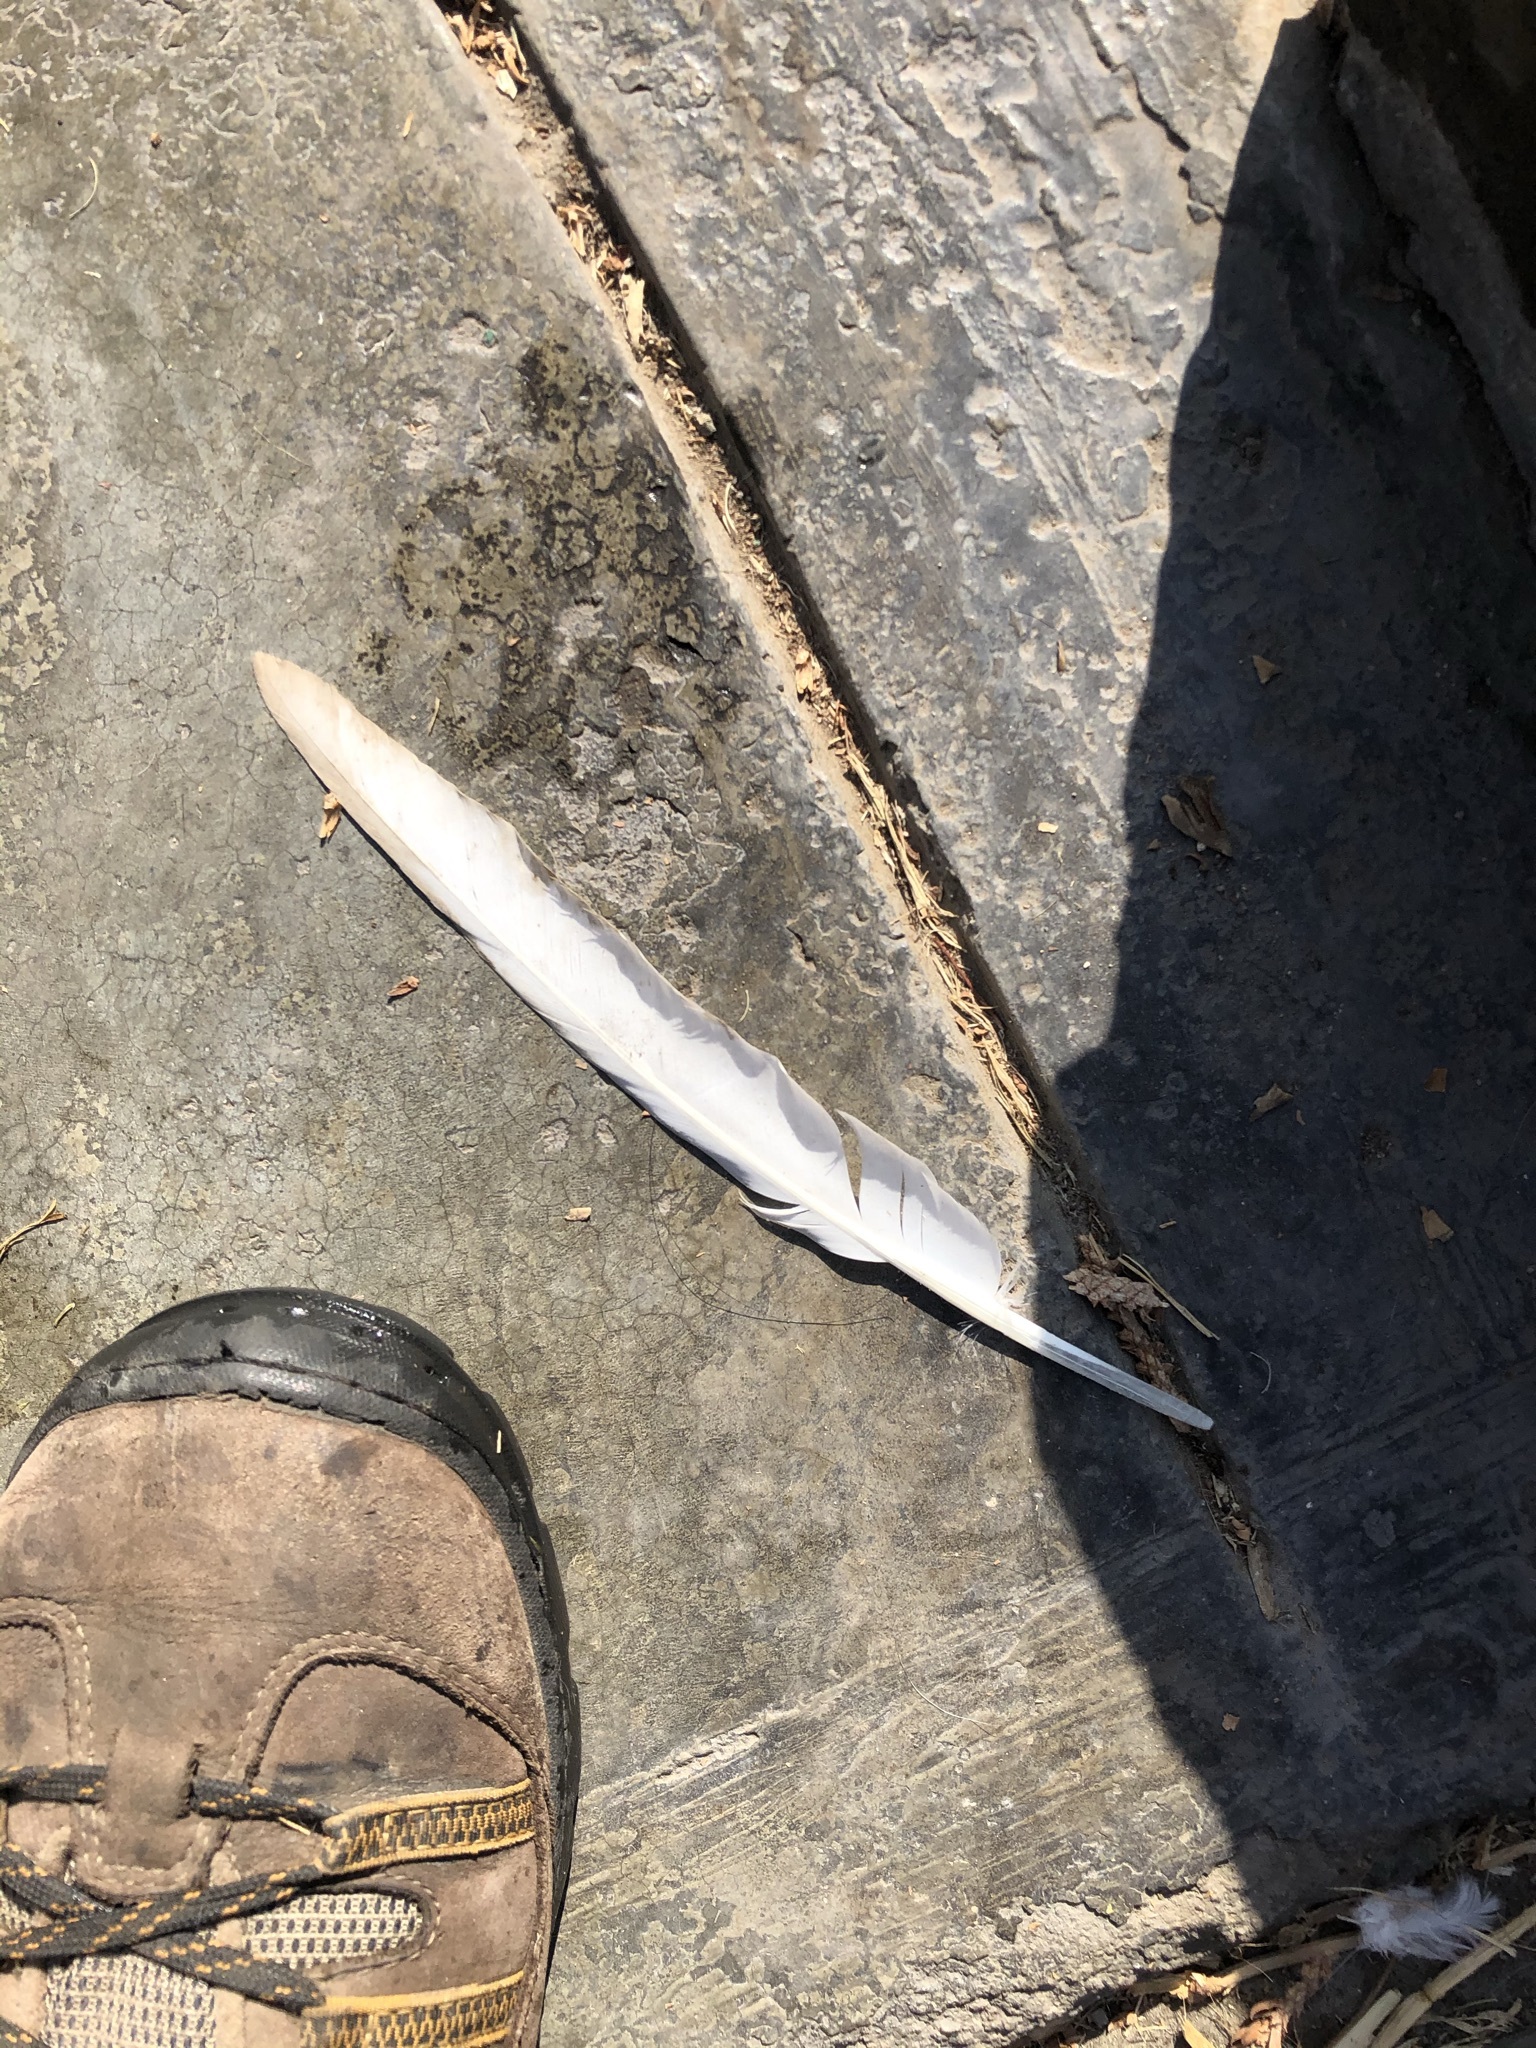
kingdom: Animalia
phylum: Chordata
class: Aves
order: Columbiformes
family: Columbidae
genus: Columba
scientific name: Columba livia
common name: Rock pigeon
